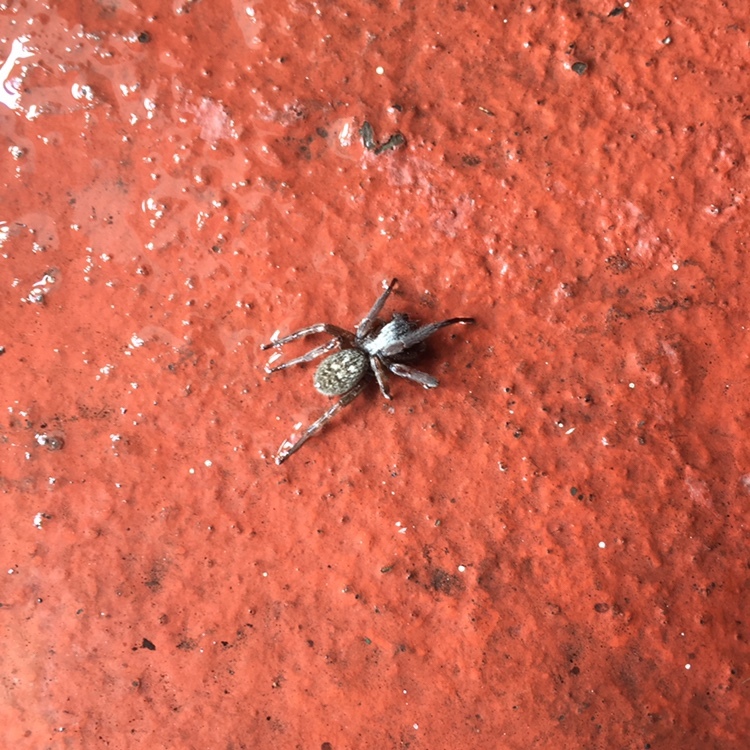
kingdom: Animalia
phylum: Arthropoda
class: Arachnida
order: Araneae
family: Desidae
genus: Badumna
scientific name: Badumna longinqua
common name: Gray house spider
